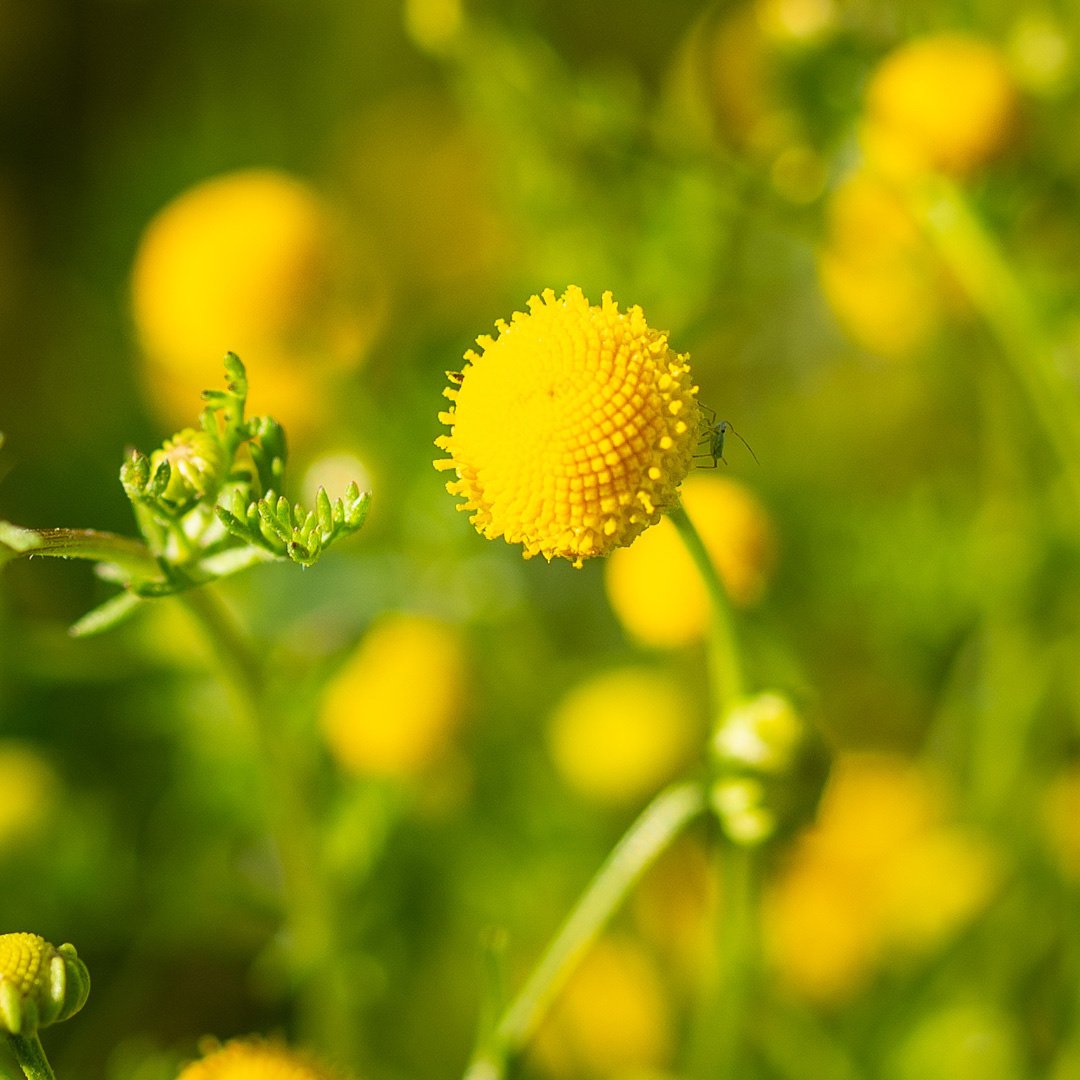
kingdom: Plantae
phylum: Tracheophyta
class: Magnoliopsida
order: Asterales
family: Asteraceae
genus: Oncosiphon
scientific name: Oncosiphon pilulifer
